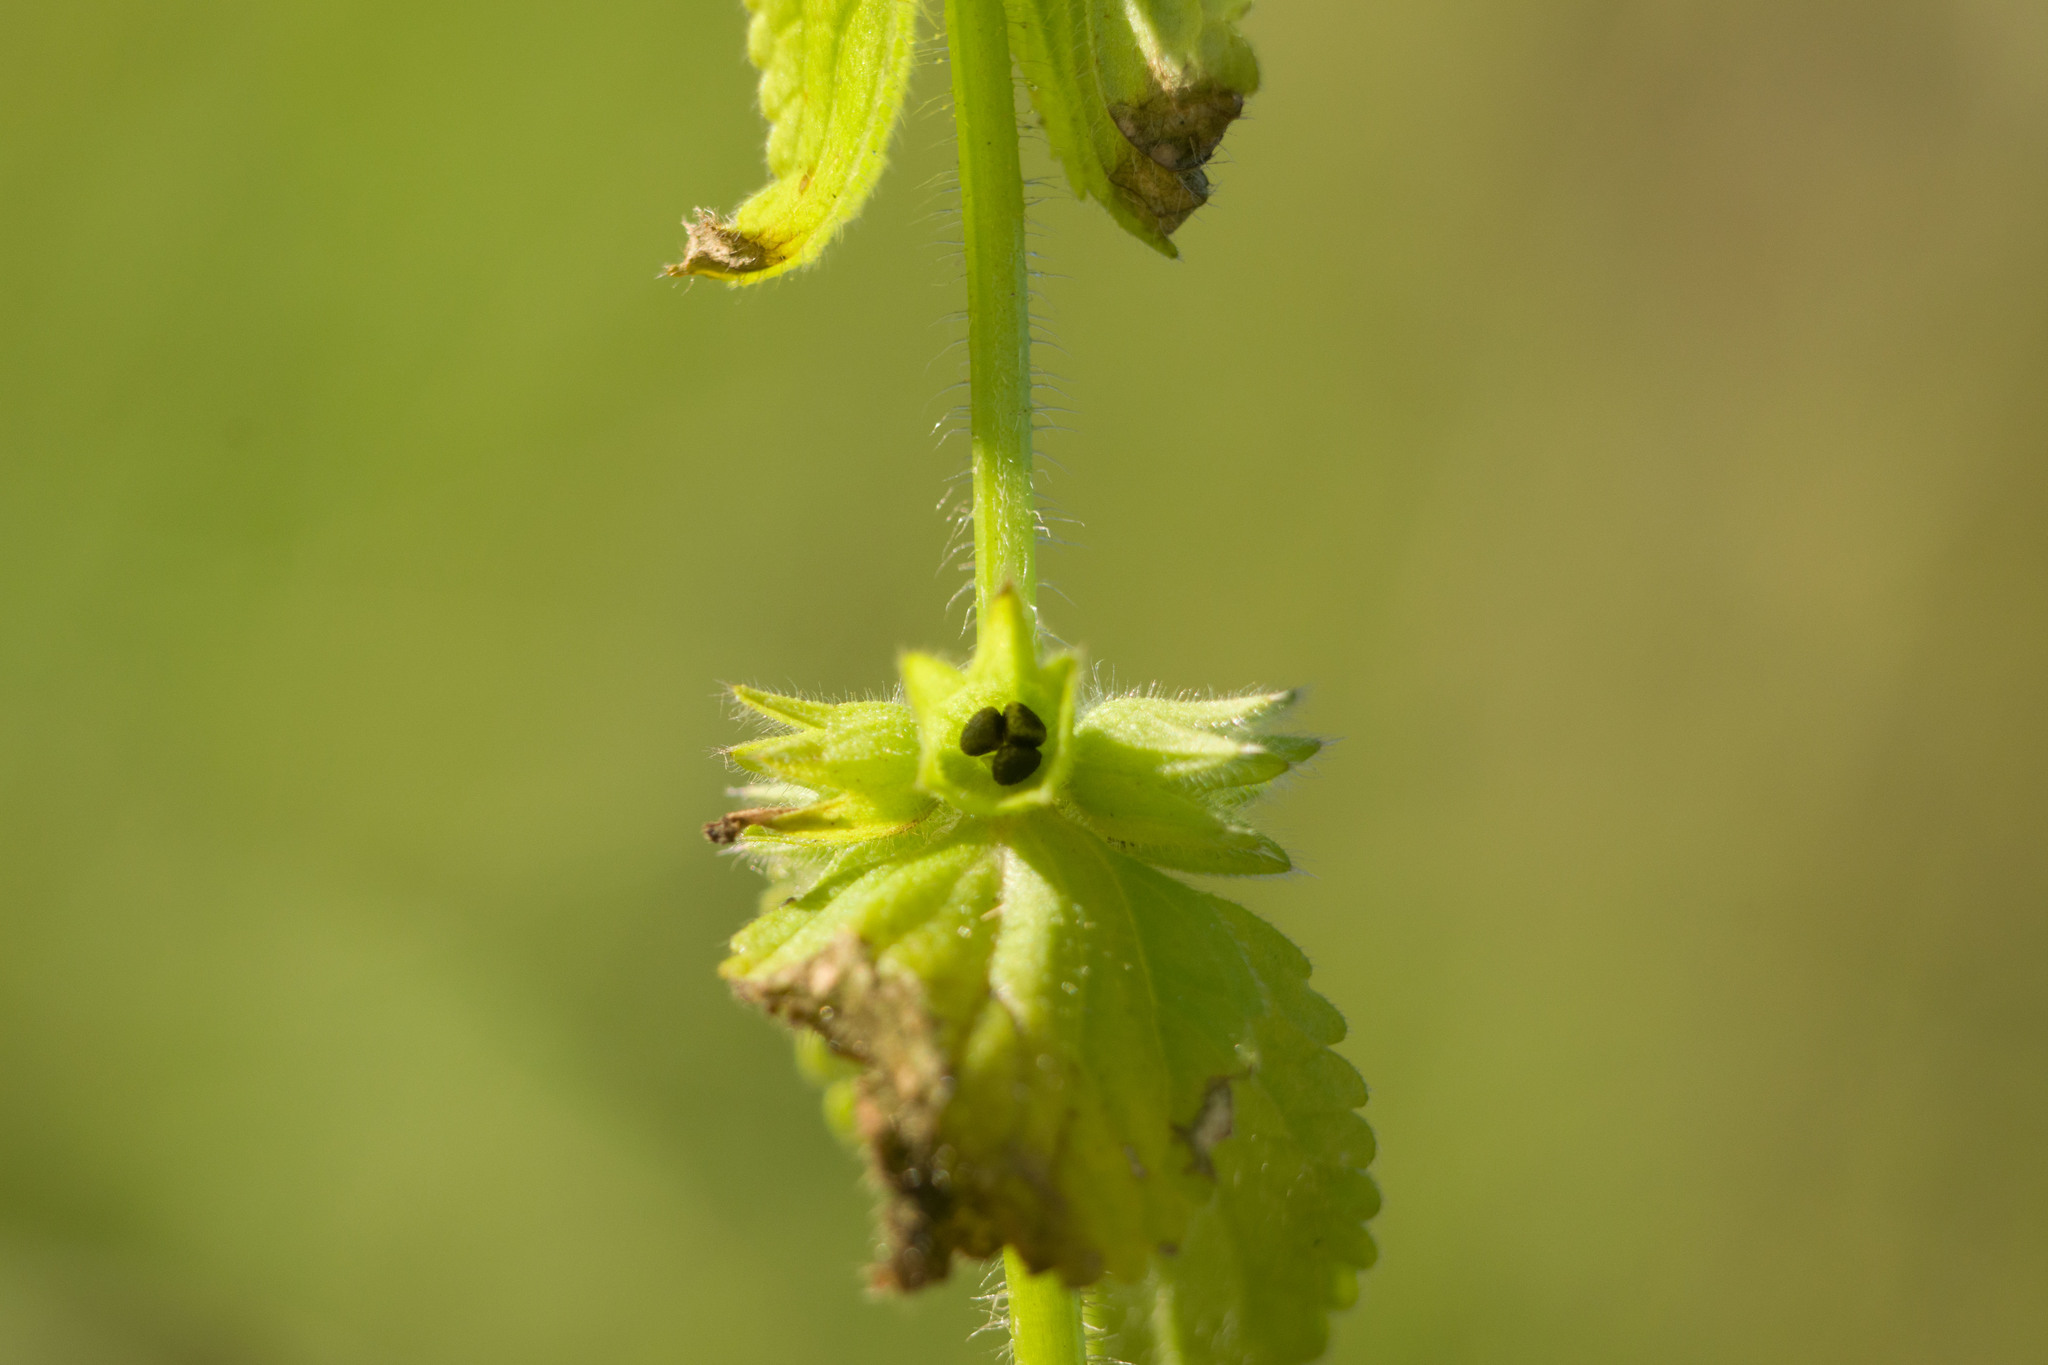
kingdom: Plantae
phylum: Tracheophyta
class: Magnoliopsida
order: Lamiales
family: Lamiaceae
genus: Stachys
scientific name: Stachys arvensis
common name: Field woundwort
